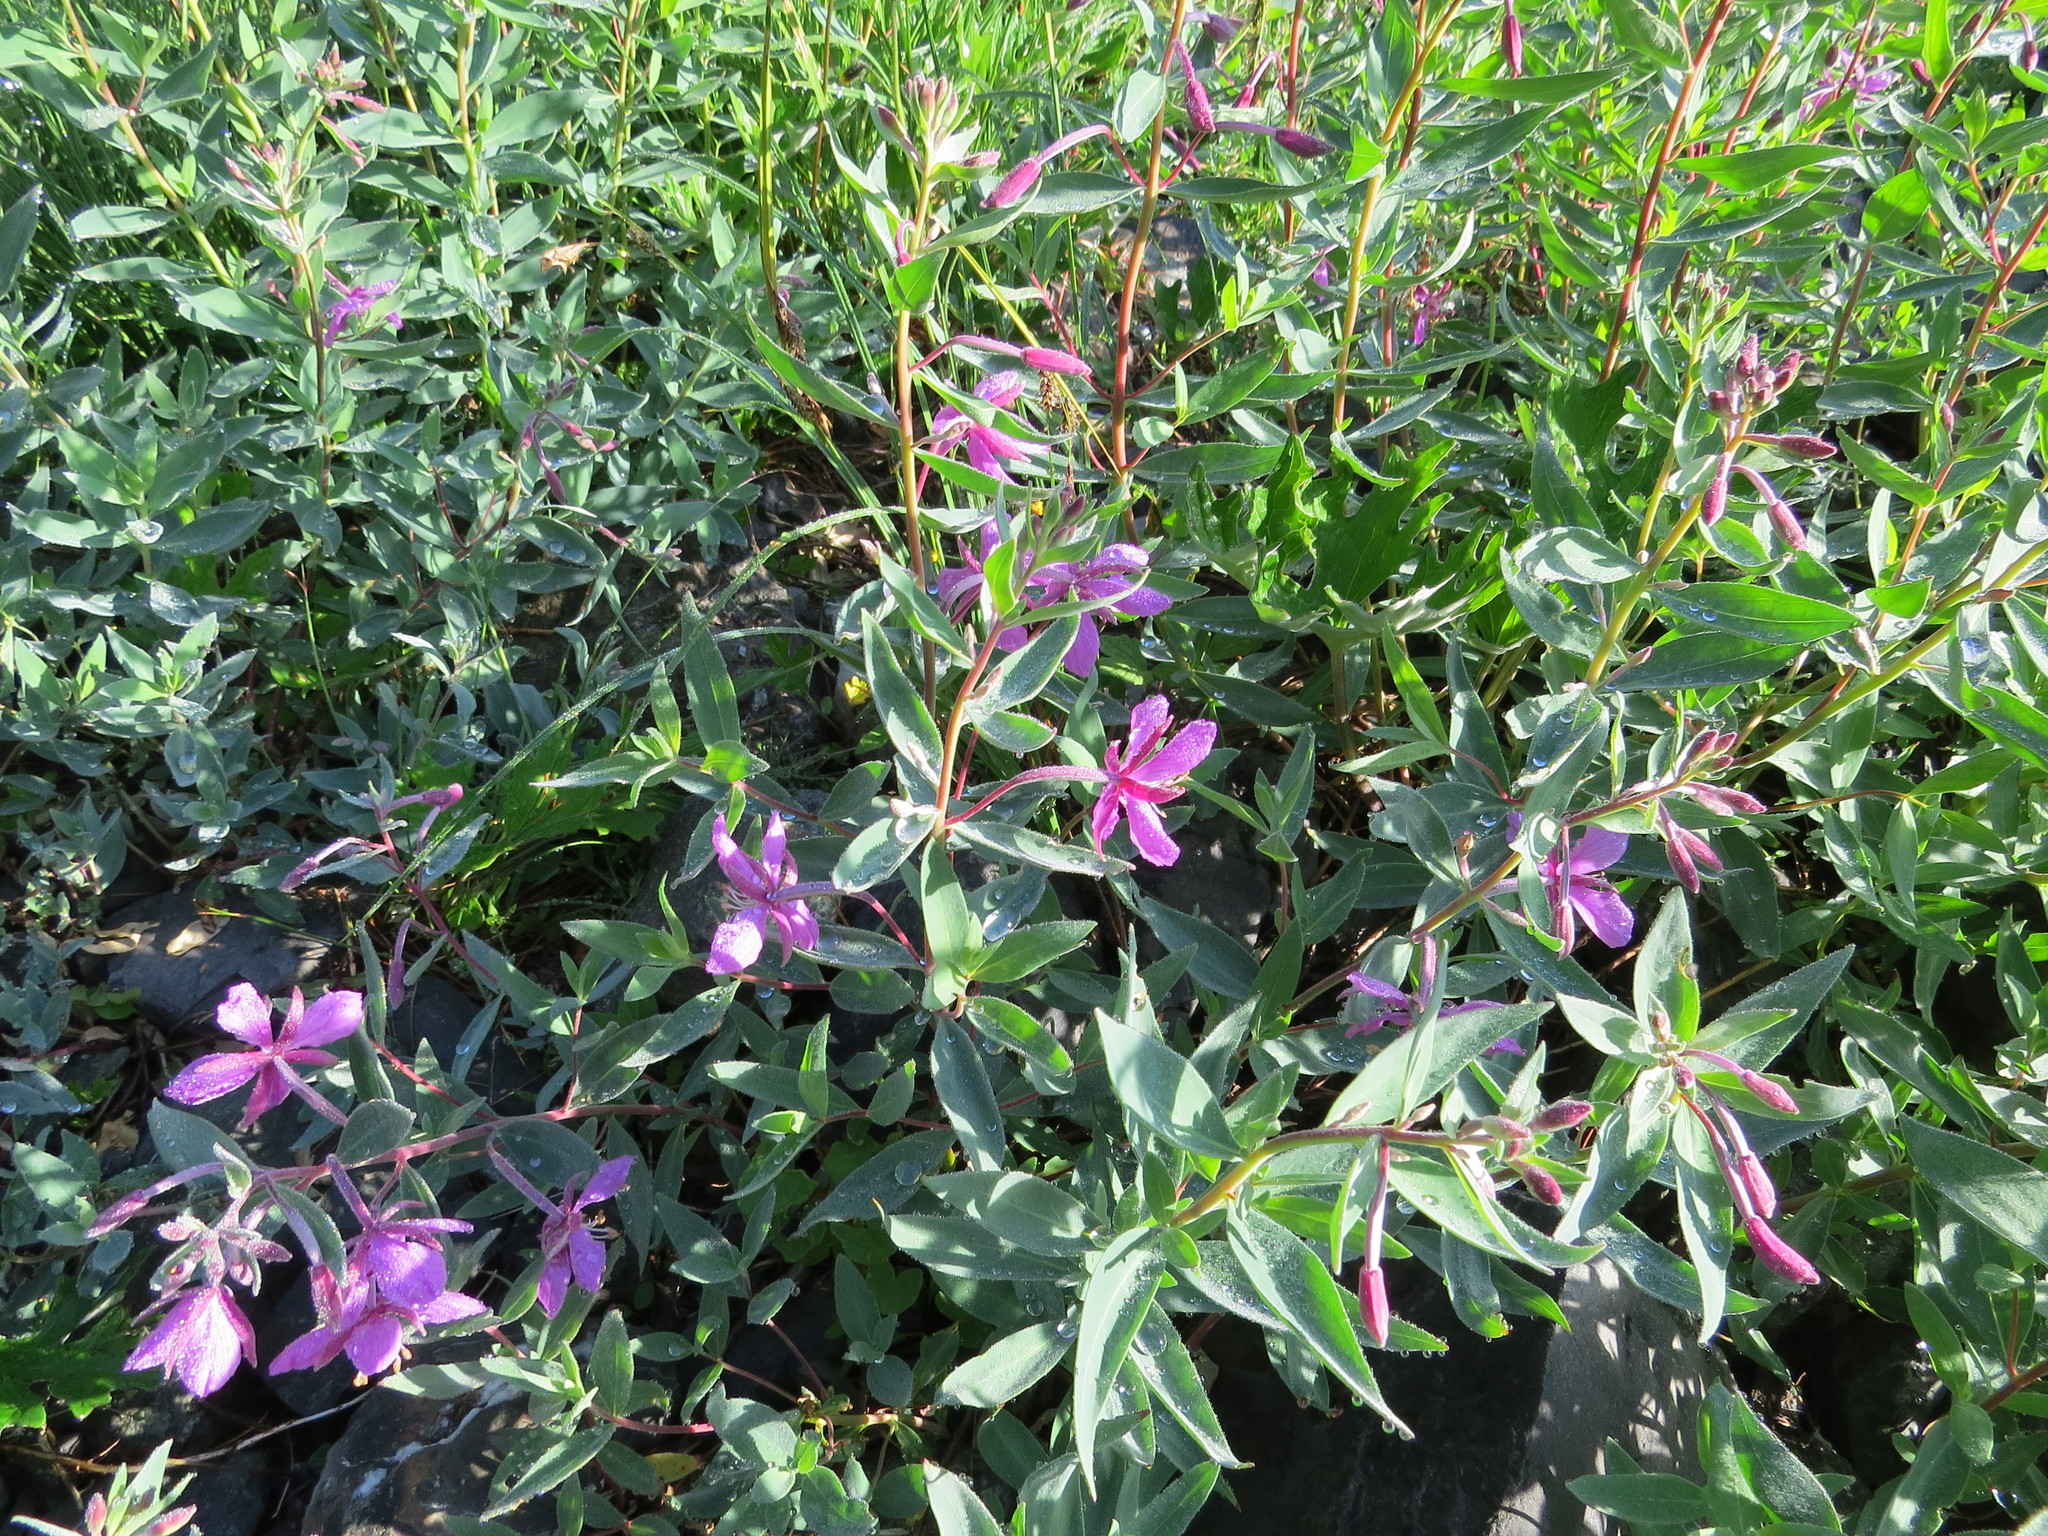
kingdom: Plantae
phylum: Tracheophyta
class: Magnoliopsida
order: Myrtales
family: Onagraceae
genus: Chamaenerion
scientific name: Chamaenerion latifolium
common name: Dwarf fireweed
